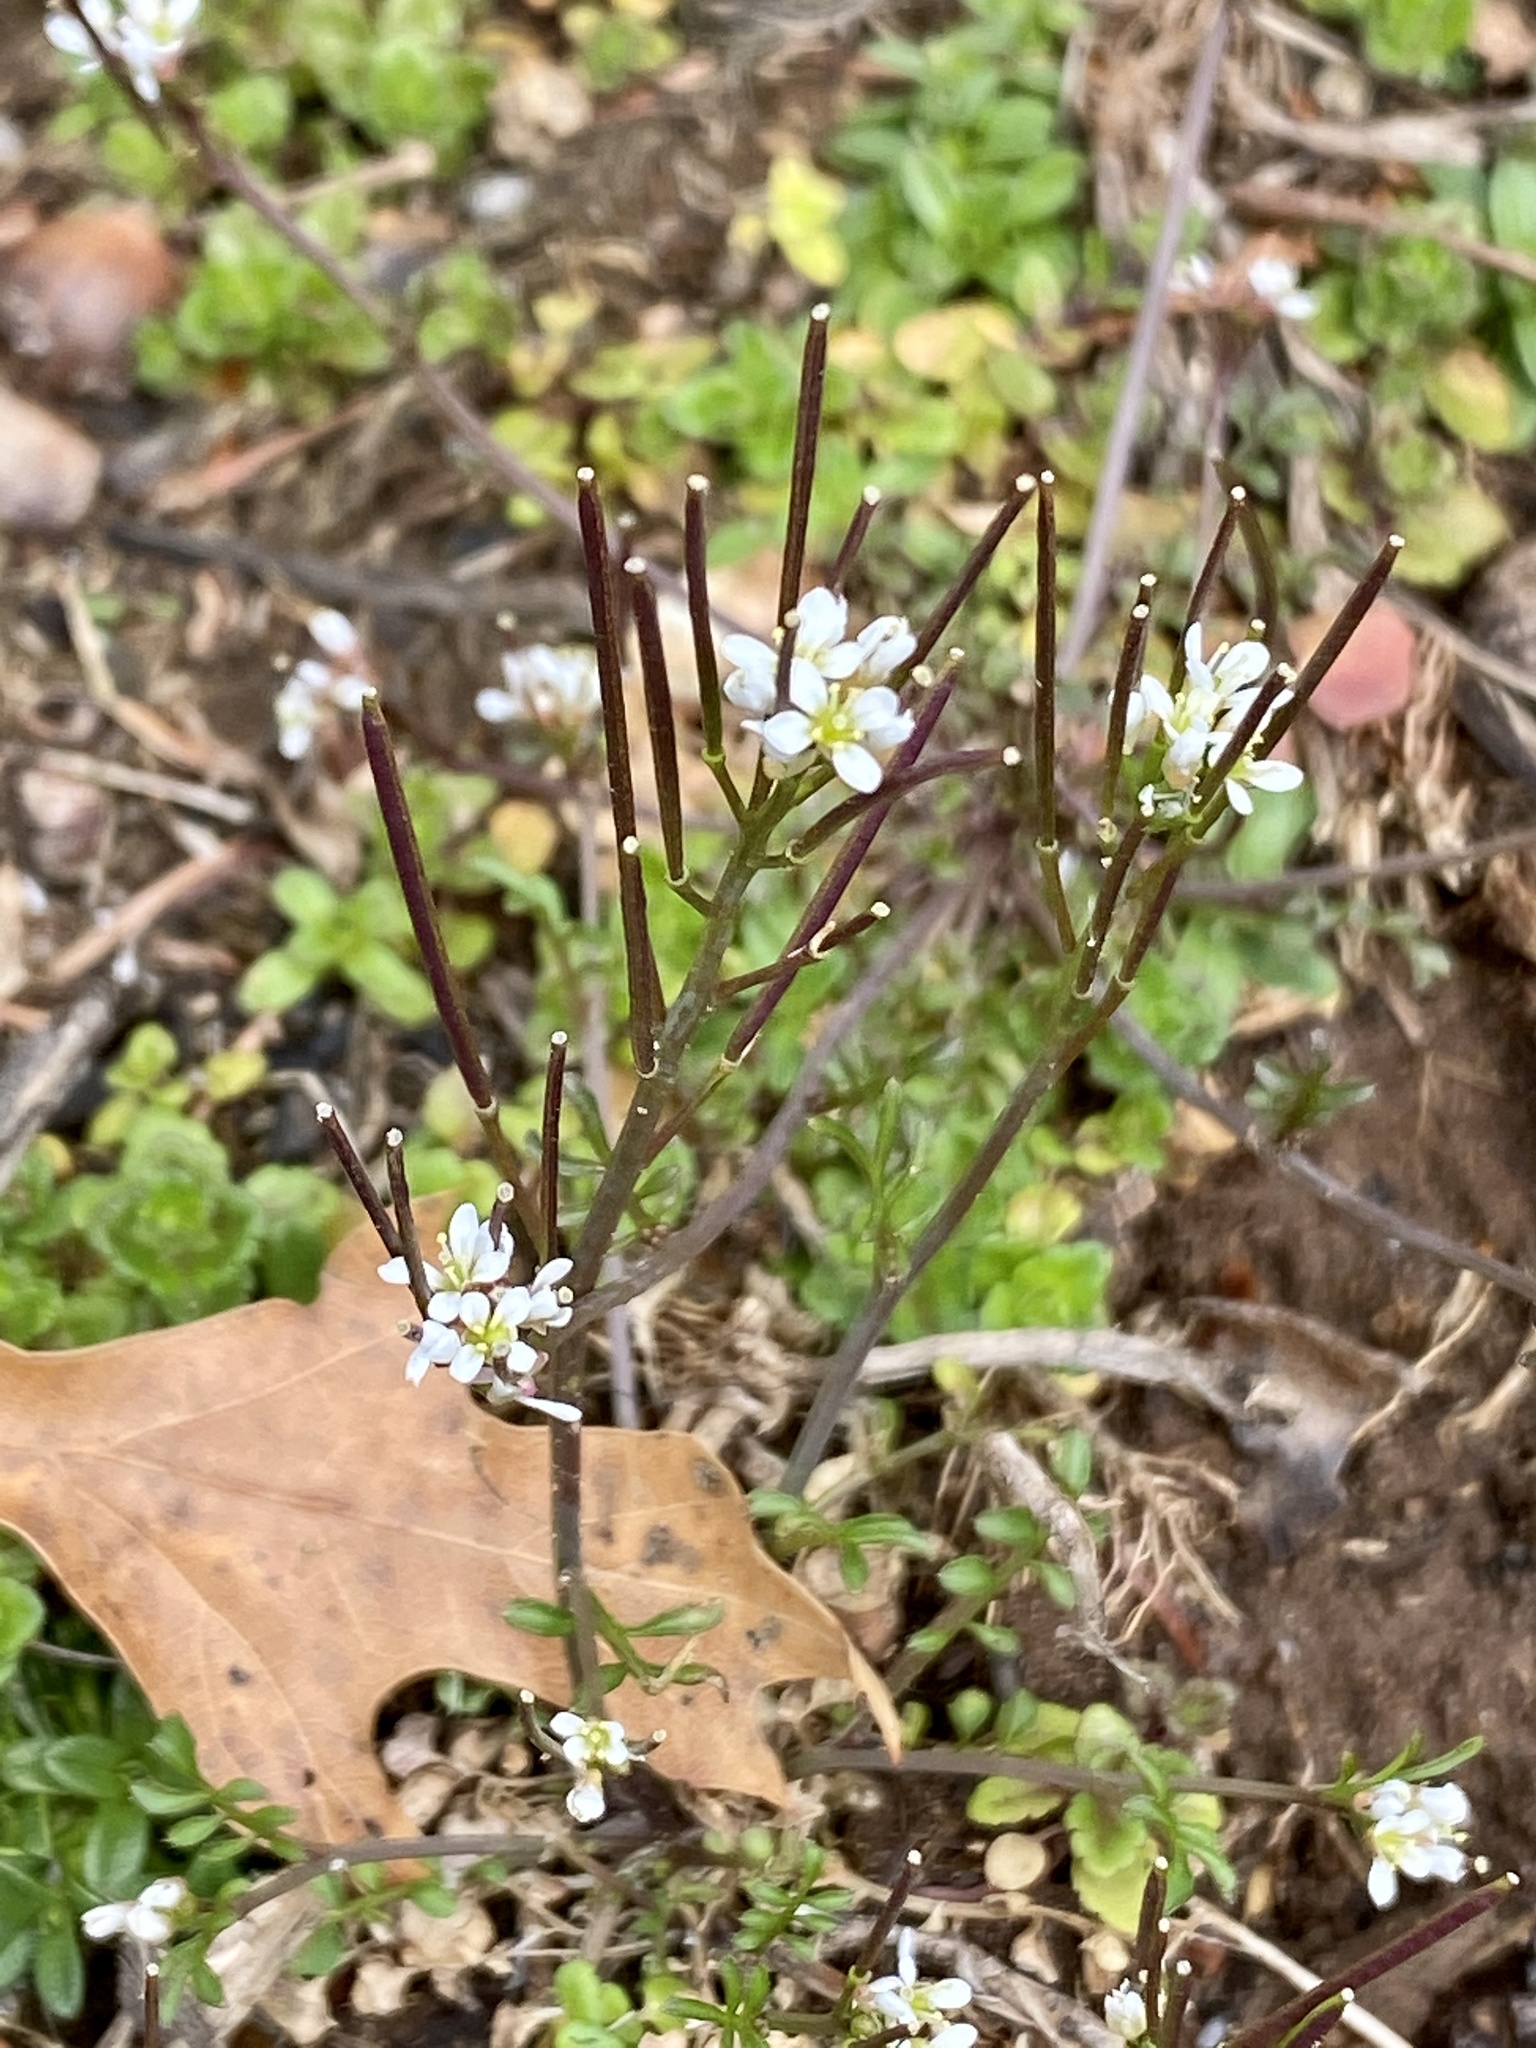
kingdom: Plantae
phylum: Tracheophyta
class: Magnoliopsida
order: Brassicales
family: Brassicaceae
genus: Cardamine
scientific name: Cardamine hirsuta
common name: Hairy bittercress
